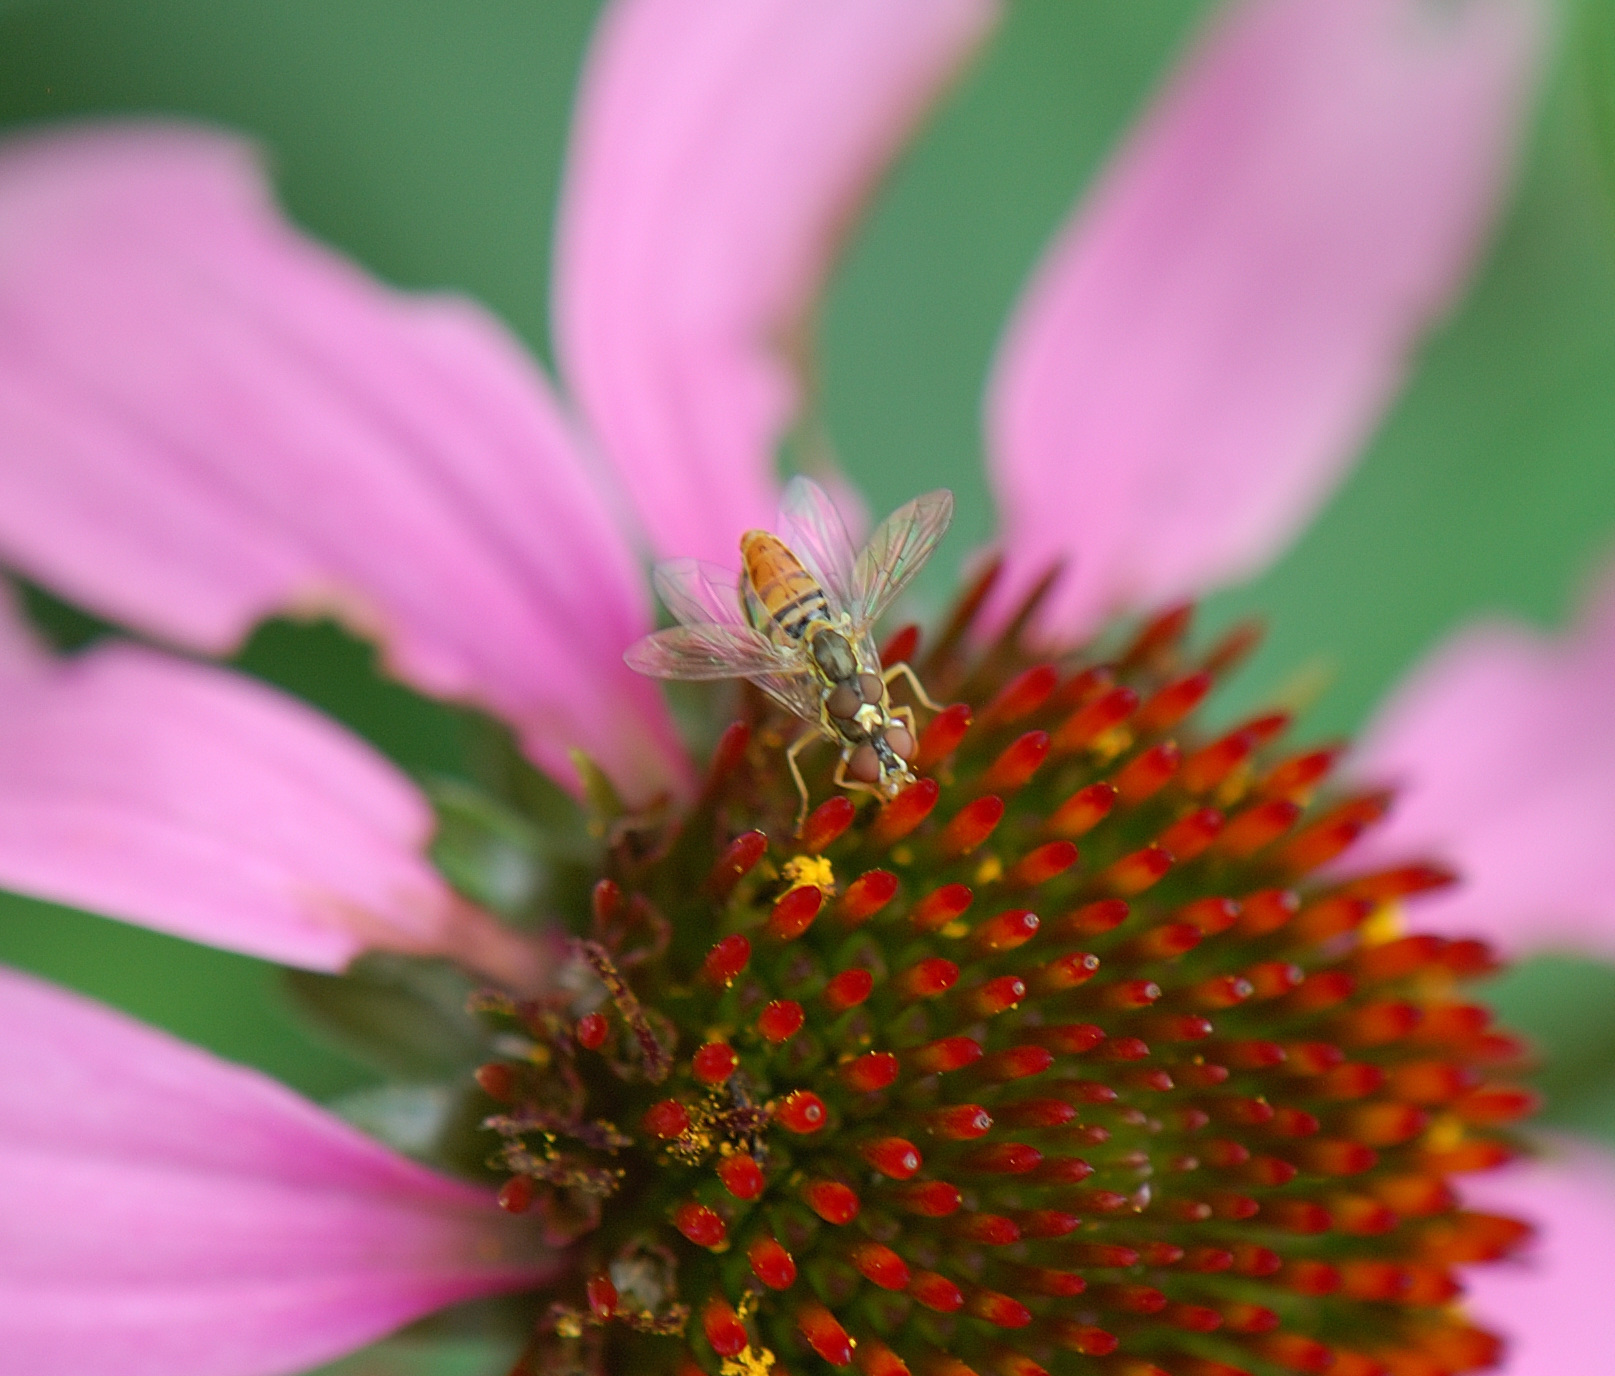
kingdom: Animalia
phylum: Arthropoda
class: Insecta
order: Diptera
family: Syrphidae
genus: Toxomerus
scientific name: Toxomerus marginatus
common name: Syrphid fly
